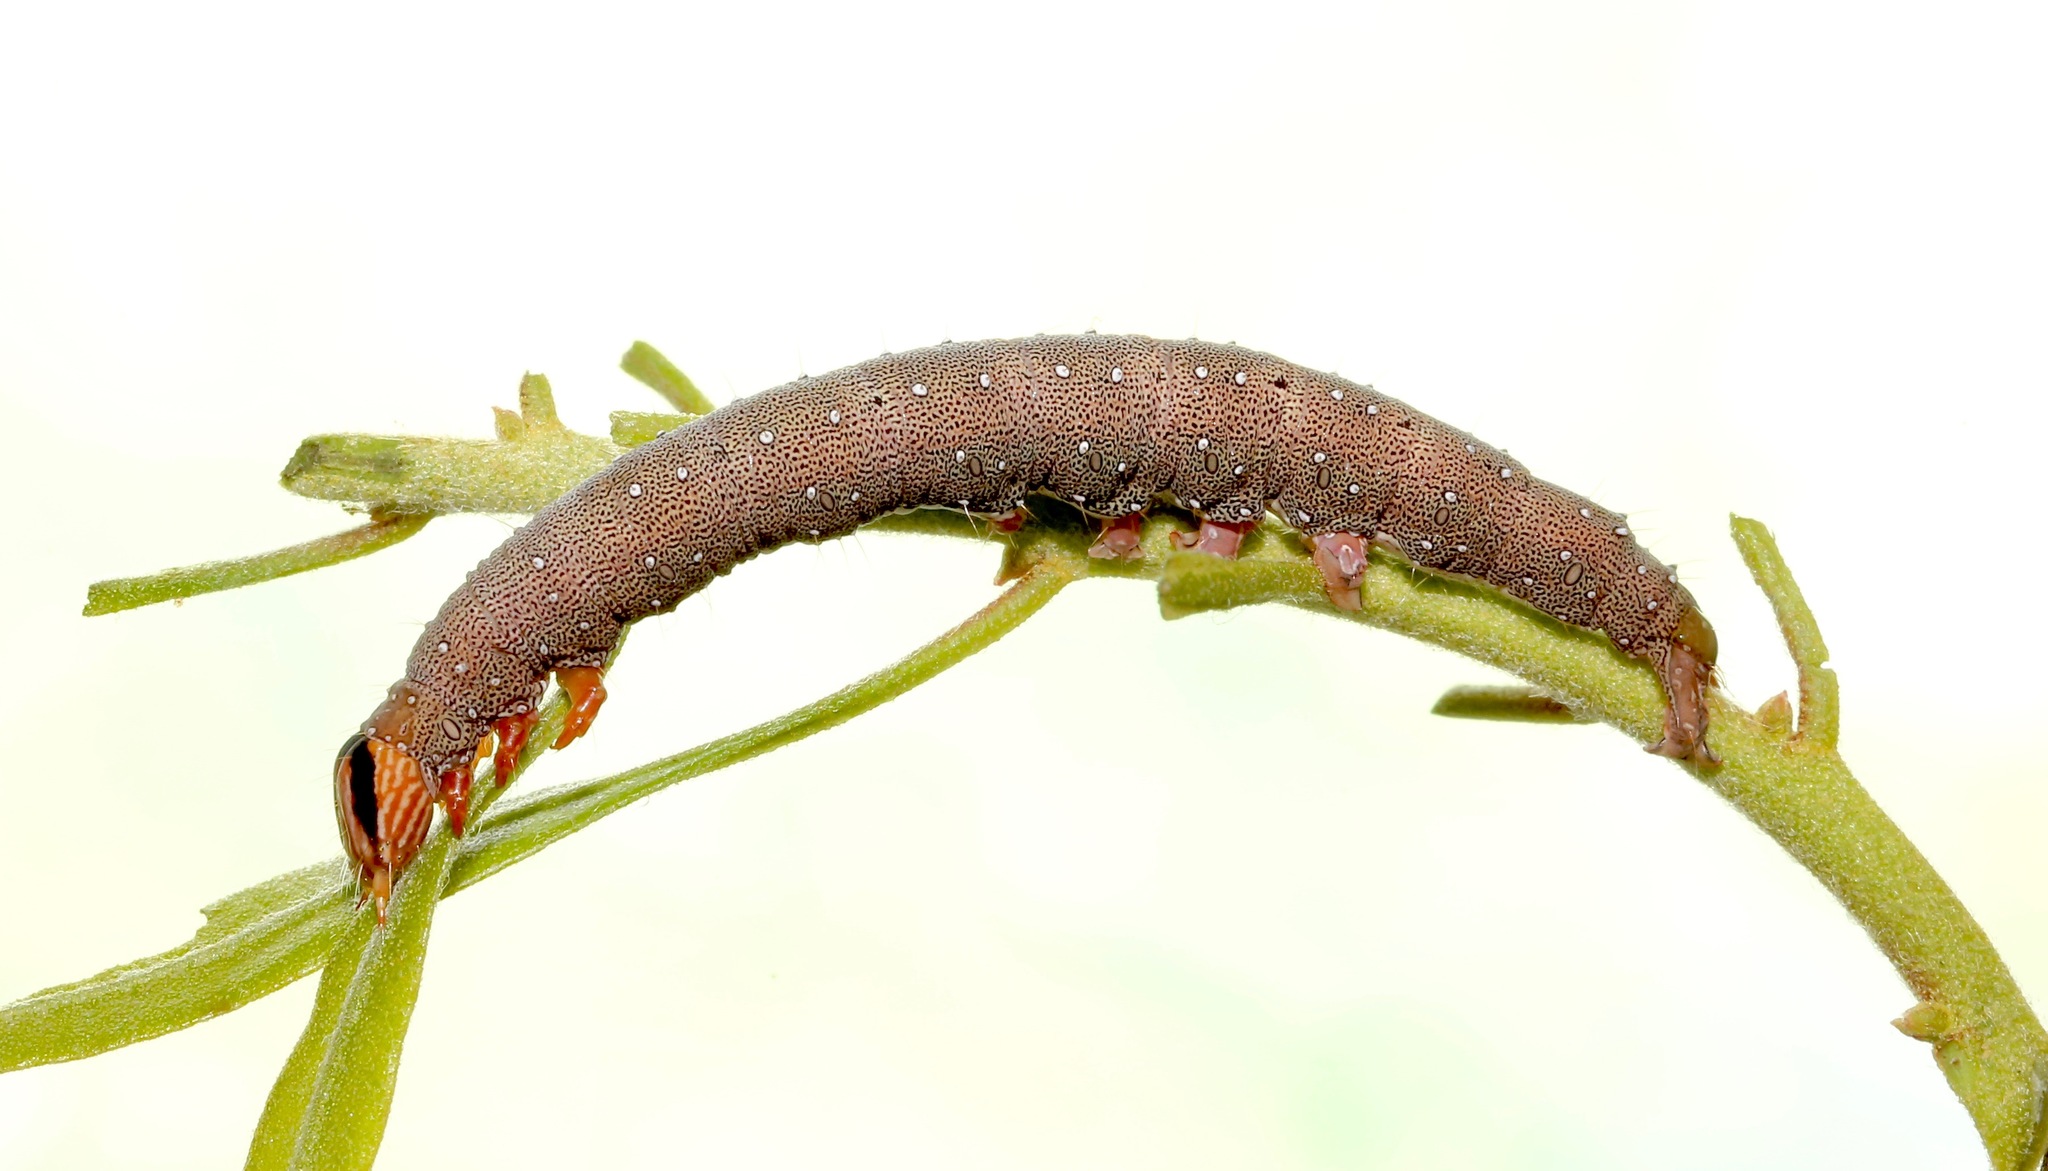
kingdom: Animalia
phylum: Arthropoda
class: Insecta
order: Lepidoptera
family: Erebidae
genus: Catocala
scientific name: Catocala muliercula
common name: The little wife underwing
